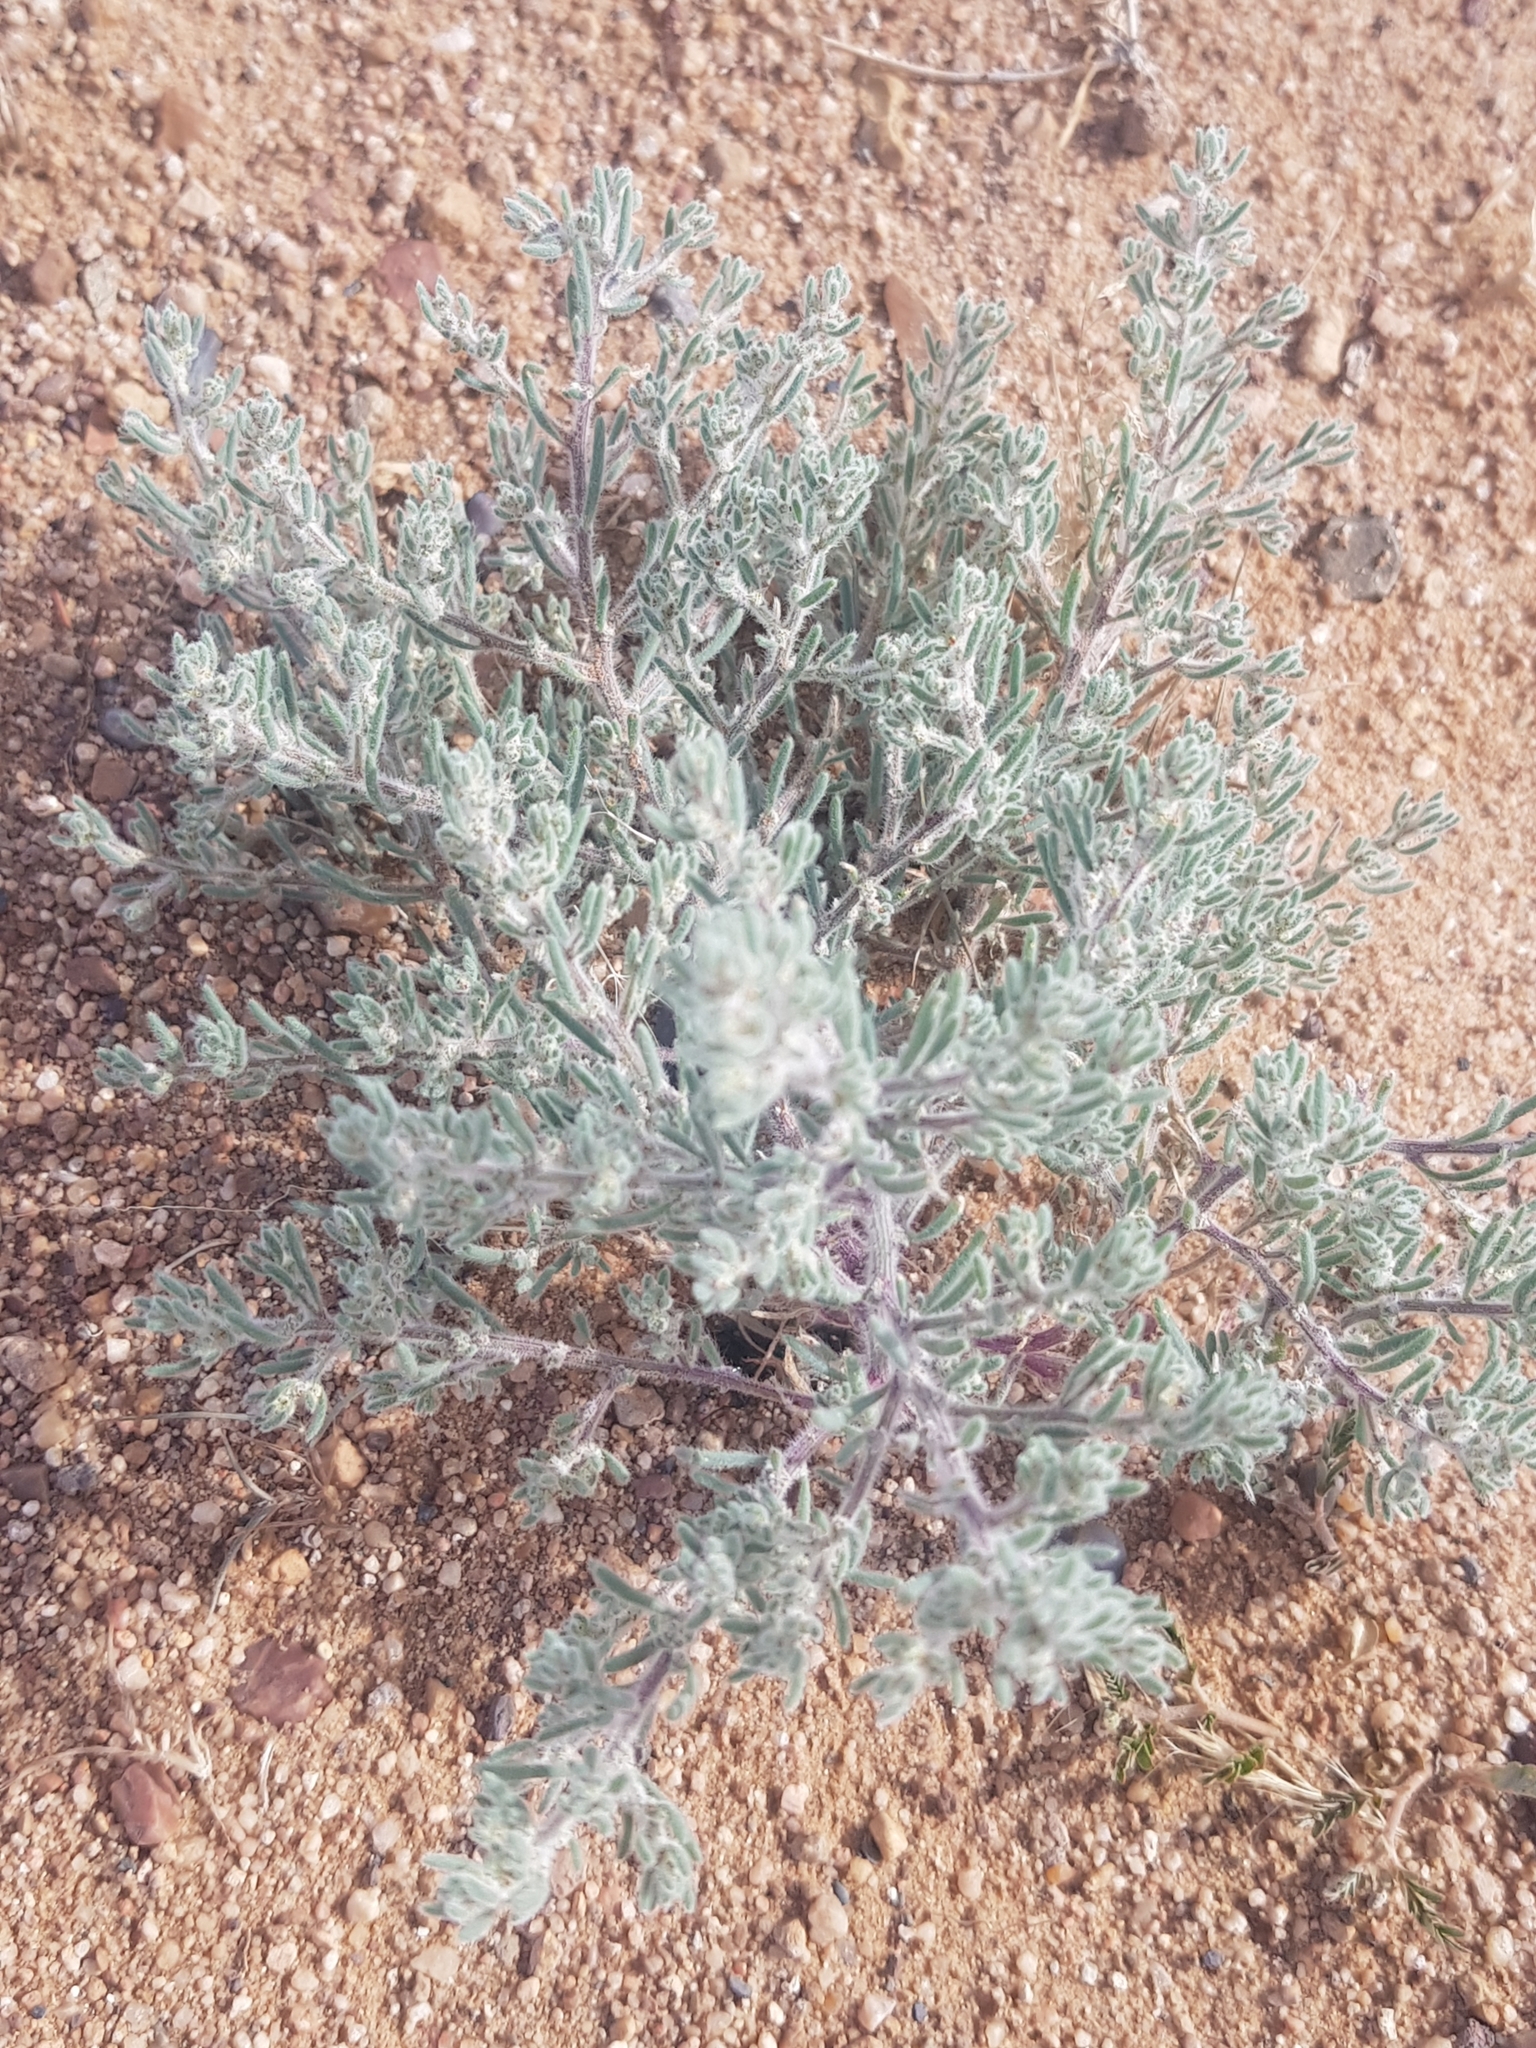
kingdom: Plantae
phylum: Tracheophyta
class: Magnoliopsida
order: Caryophyllales
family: Amaranthaceae
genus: Grubovia
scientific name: Grubovia dasyphylla
